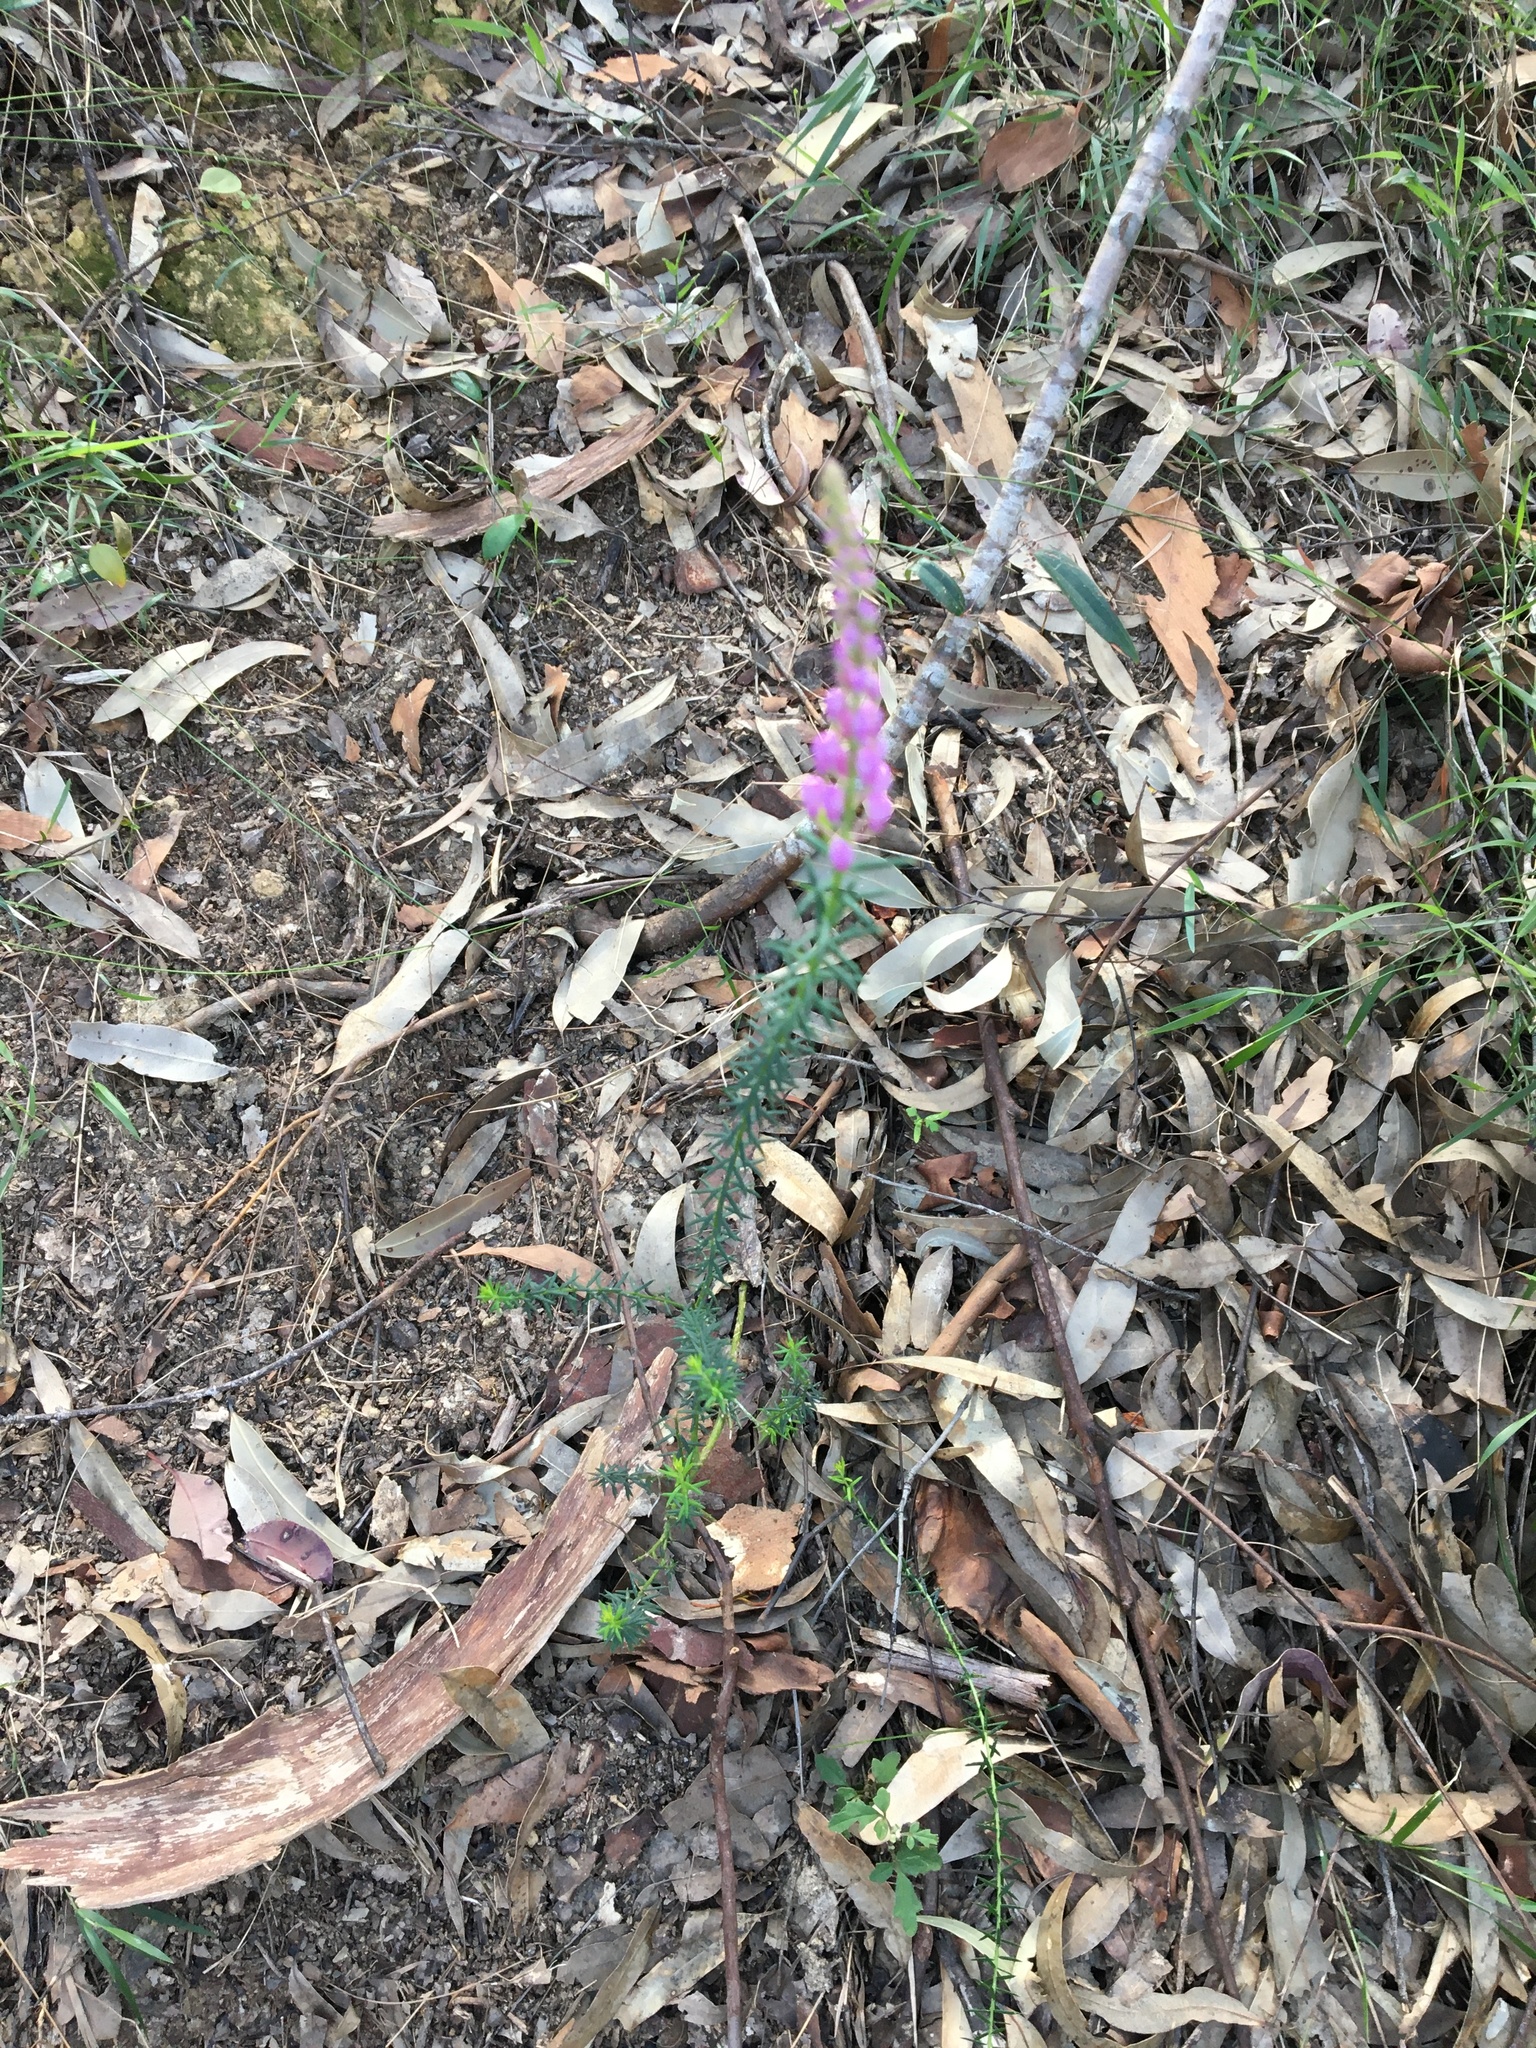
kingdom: Plantae
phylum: Tracheophyta
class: Magnoliopsida
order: Fabales
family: Polygalaceae
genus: Comesperma
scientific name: Comesperma ericinum
